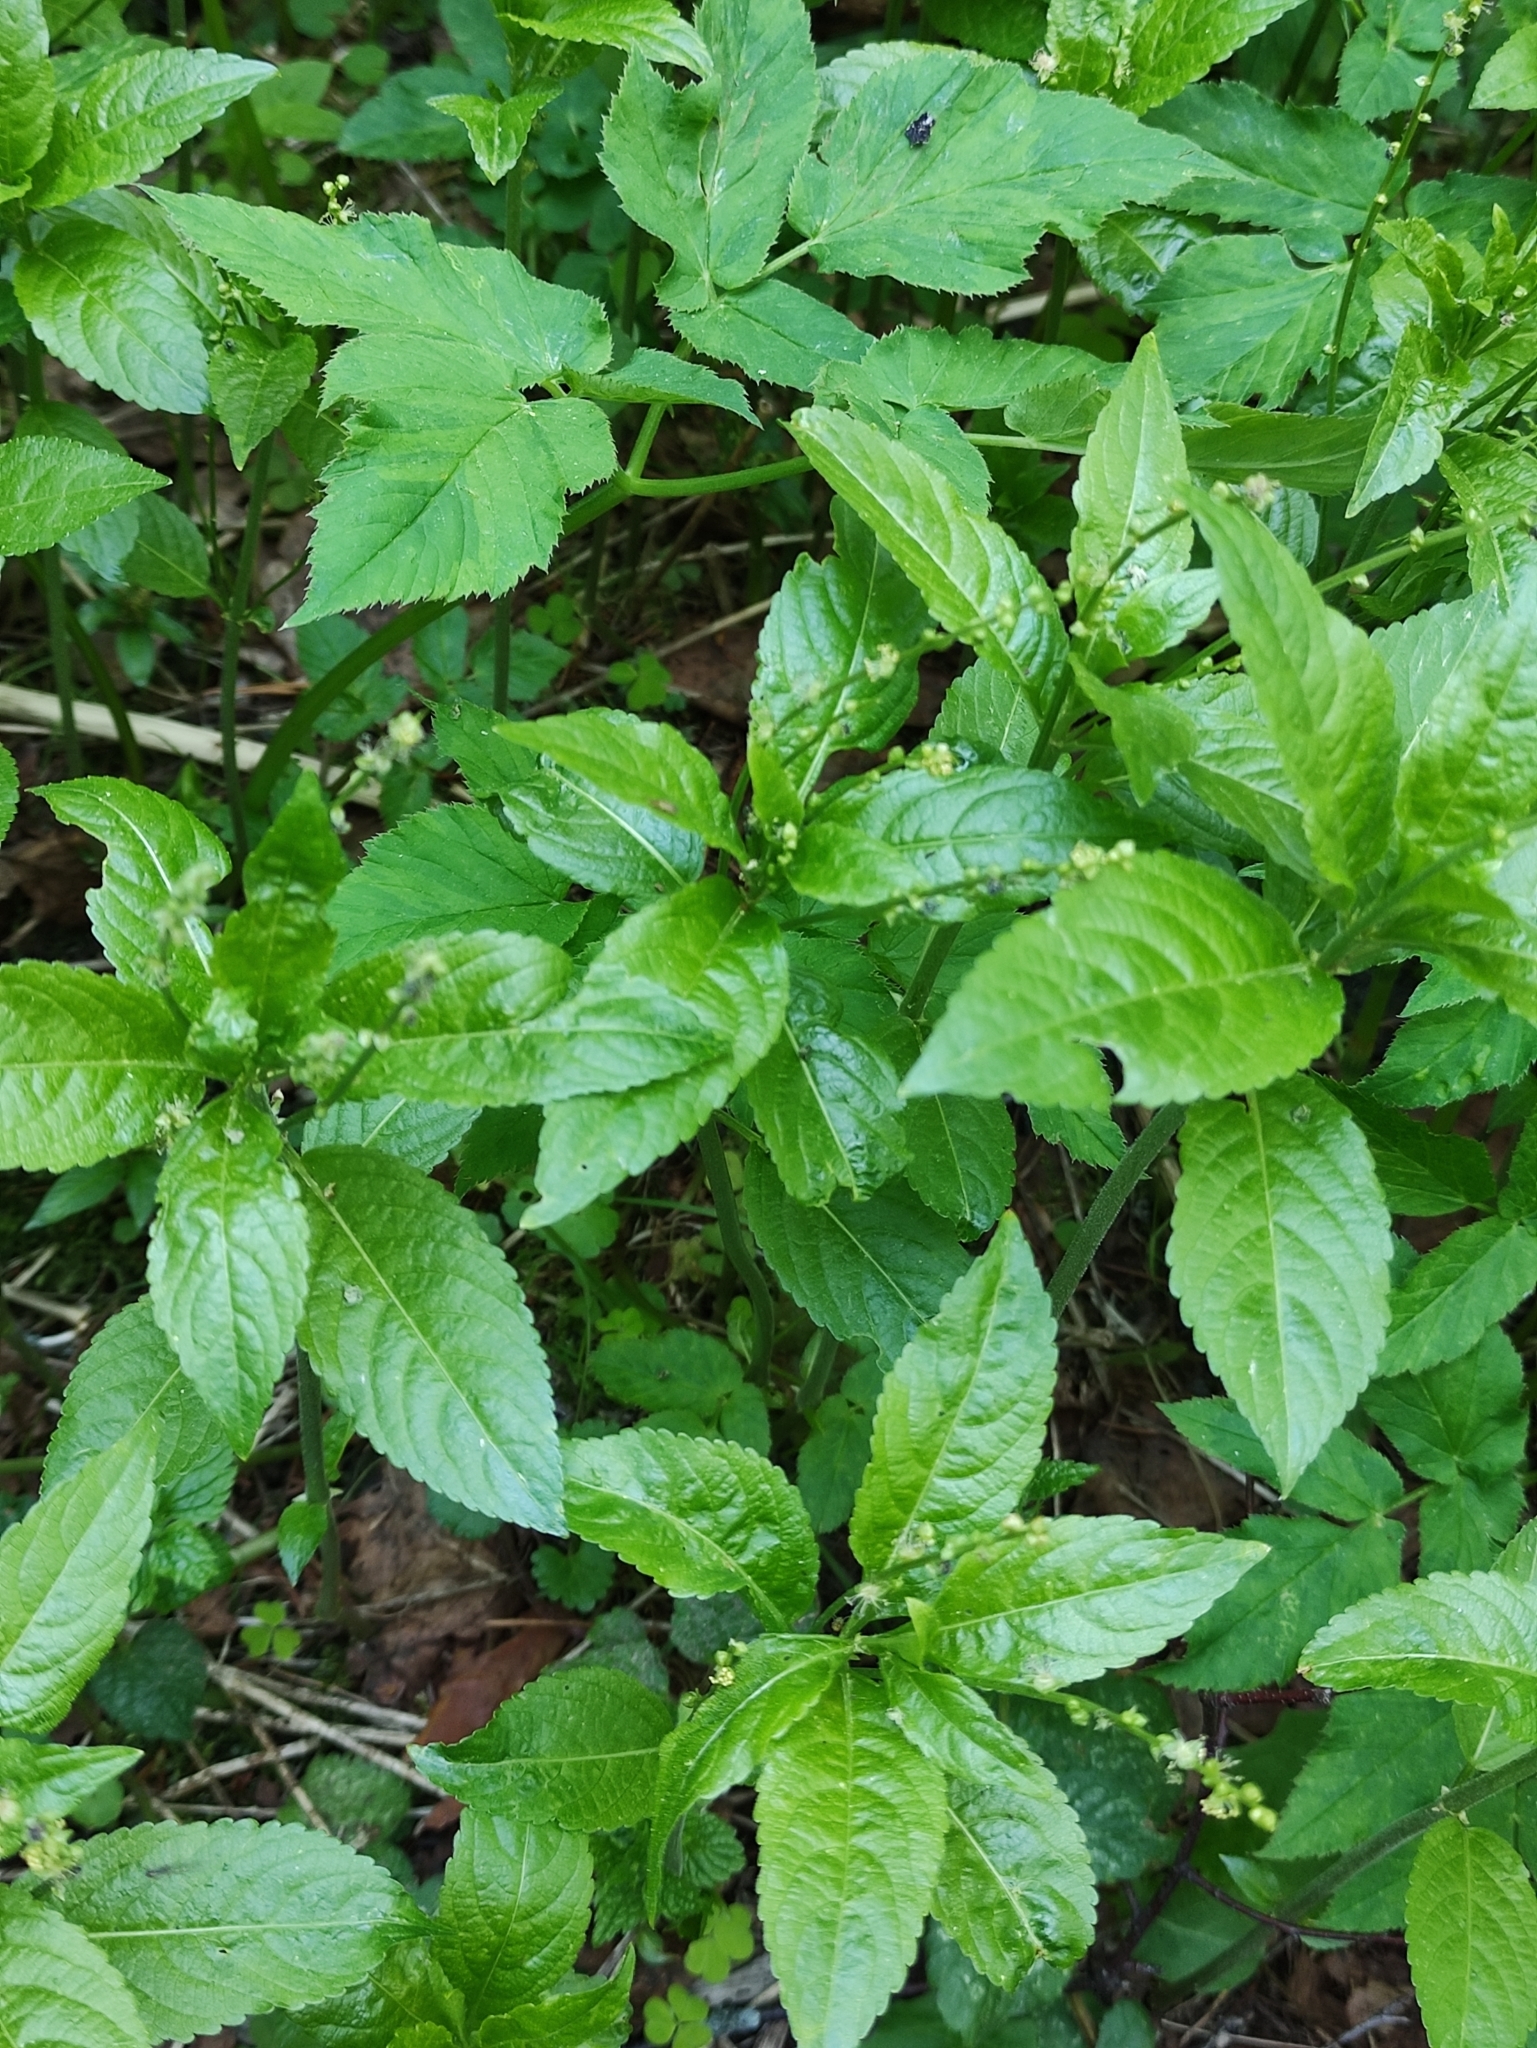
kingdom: Plantae
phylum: Tracheophyta
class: Magnoliopsida
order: Malpighiales
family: Euphorbiaceae
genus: Mercurialis
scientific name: Mercurialis perennis
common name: Dog mercury
